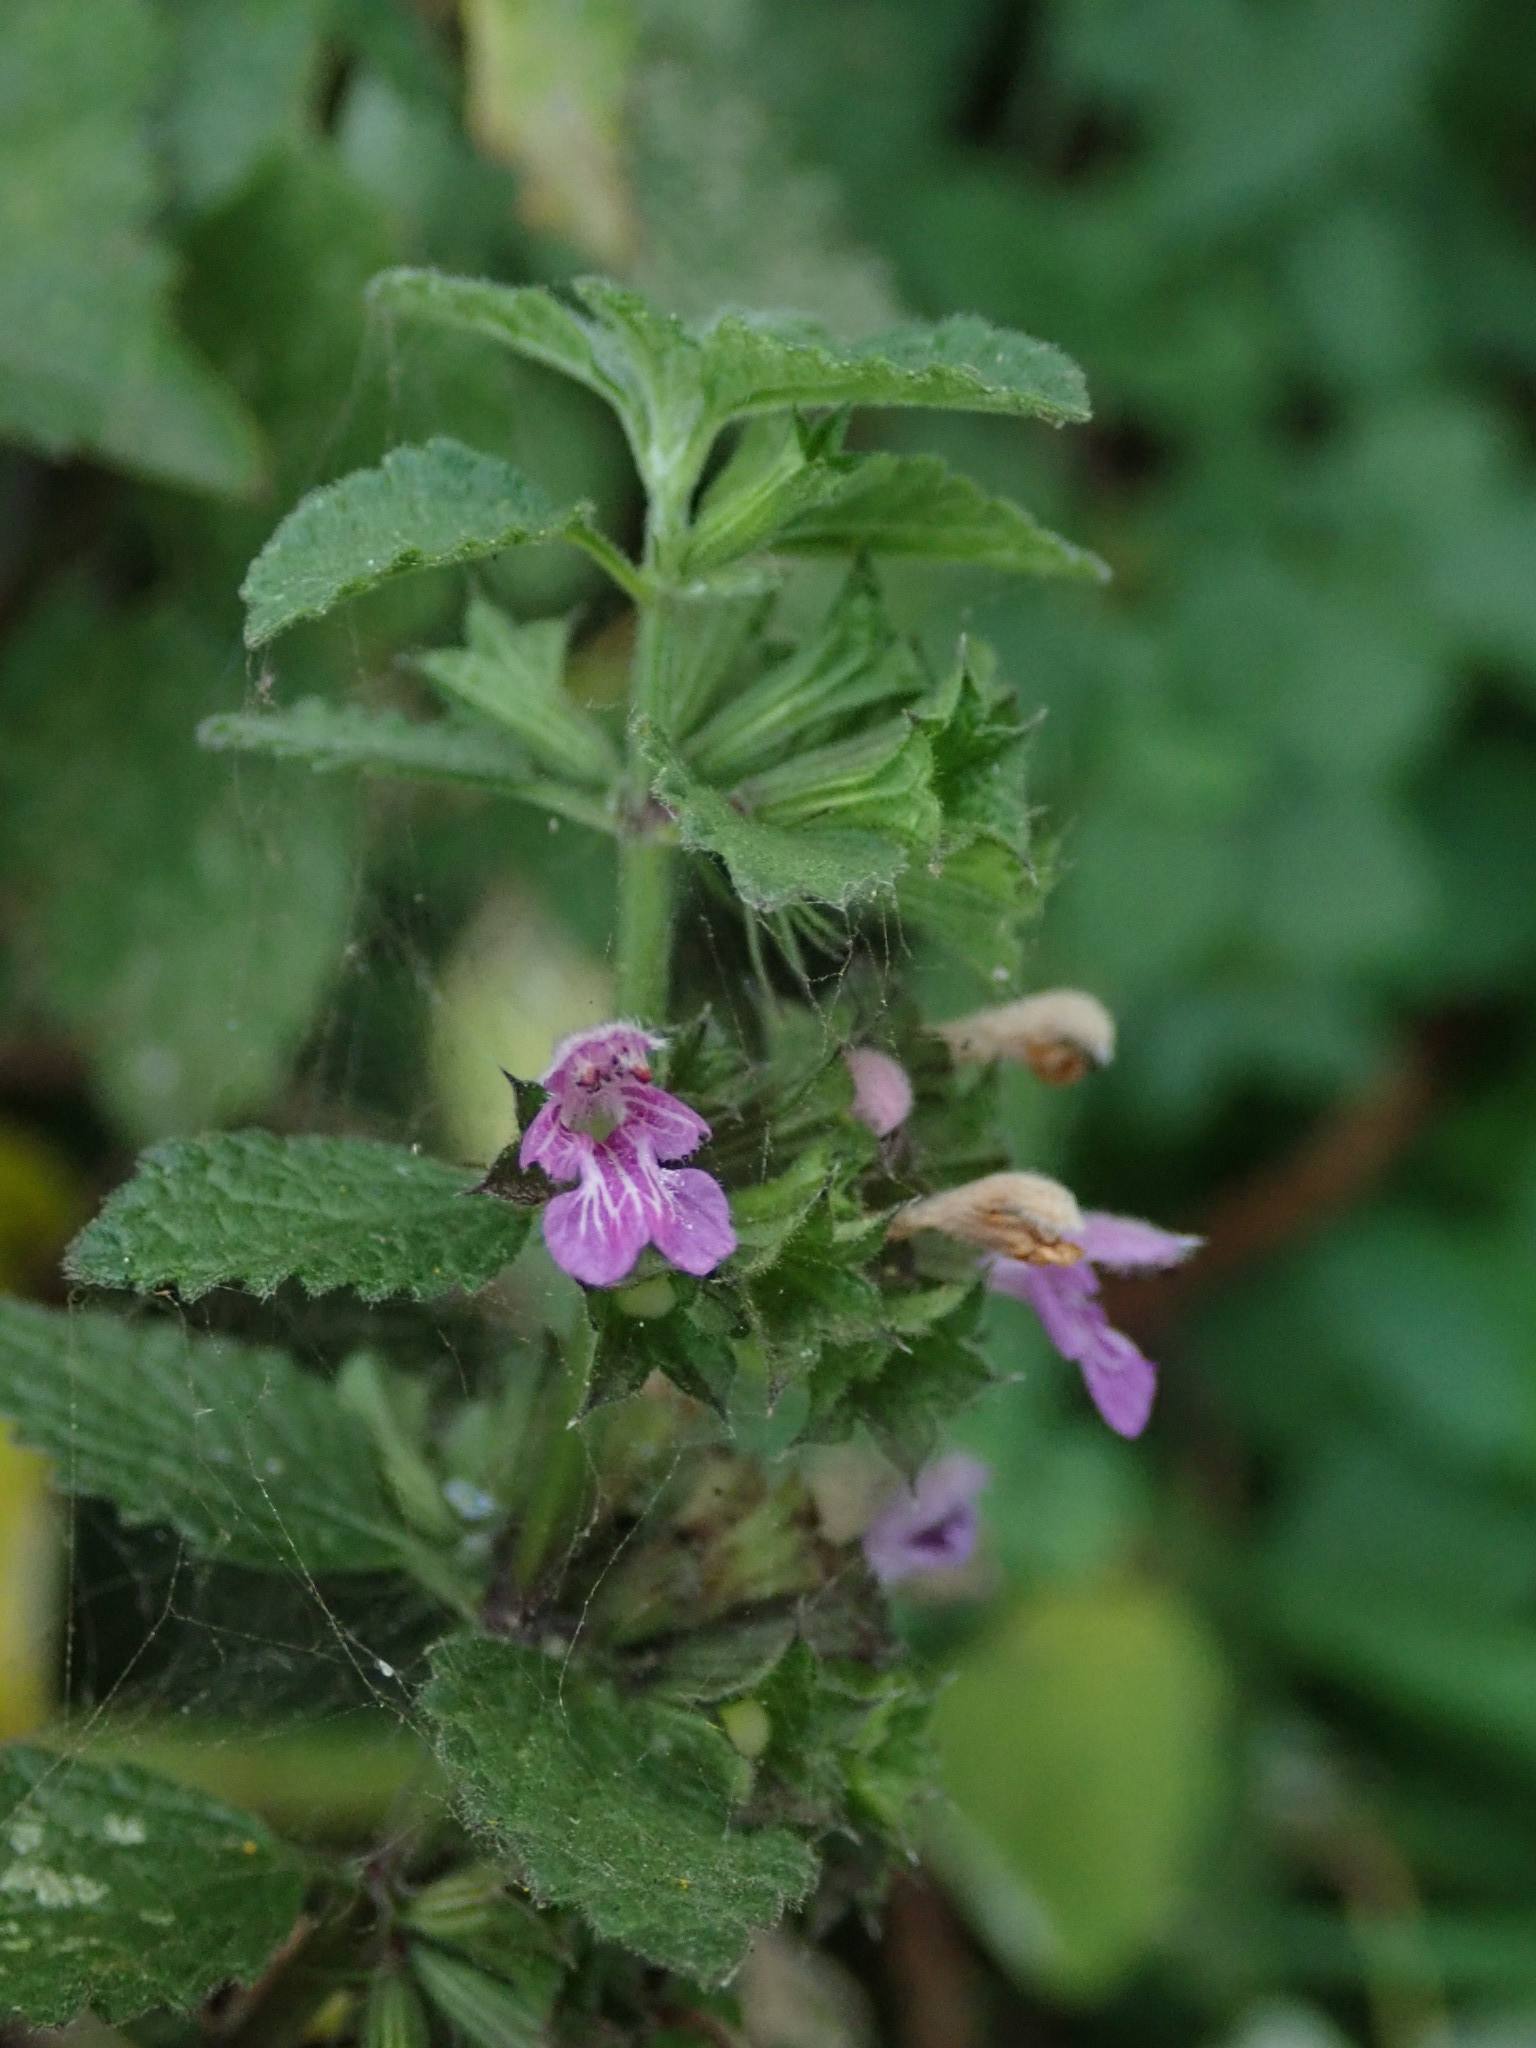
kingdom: Plantae
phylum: Tracheophyta
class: Magnoliopsida
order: Lamiales
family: Lamiaceae
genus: Ballota
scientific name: Ballota nigra
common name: Black horehound
